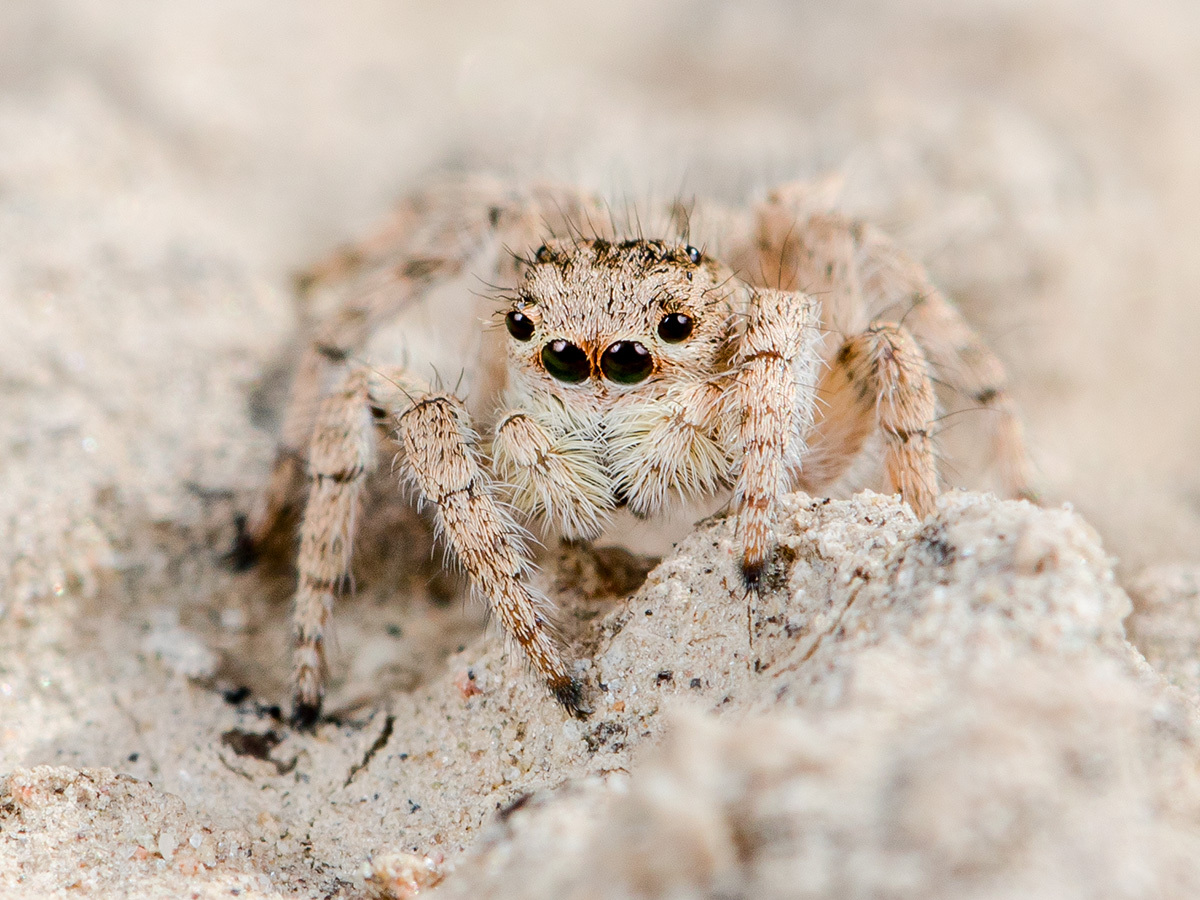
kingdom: Animalia
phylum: Arthropoda
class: Arachnida
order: Araneae
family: Salticidae
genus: Aelurillus
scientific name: Aelurillus concolor
